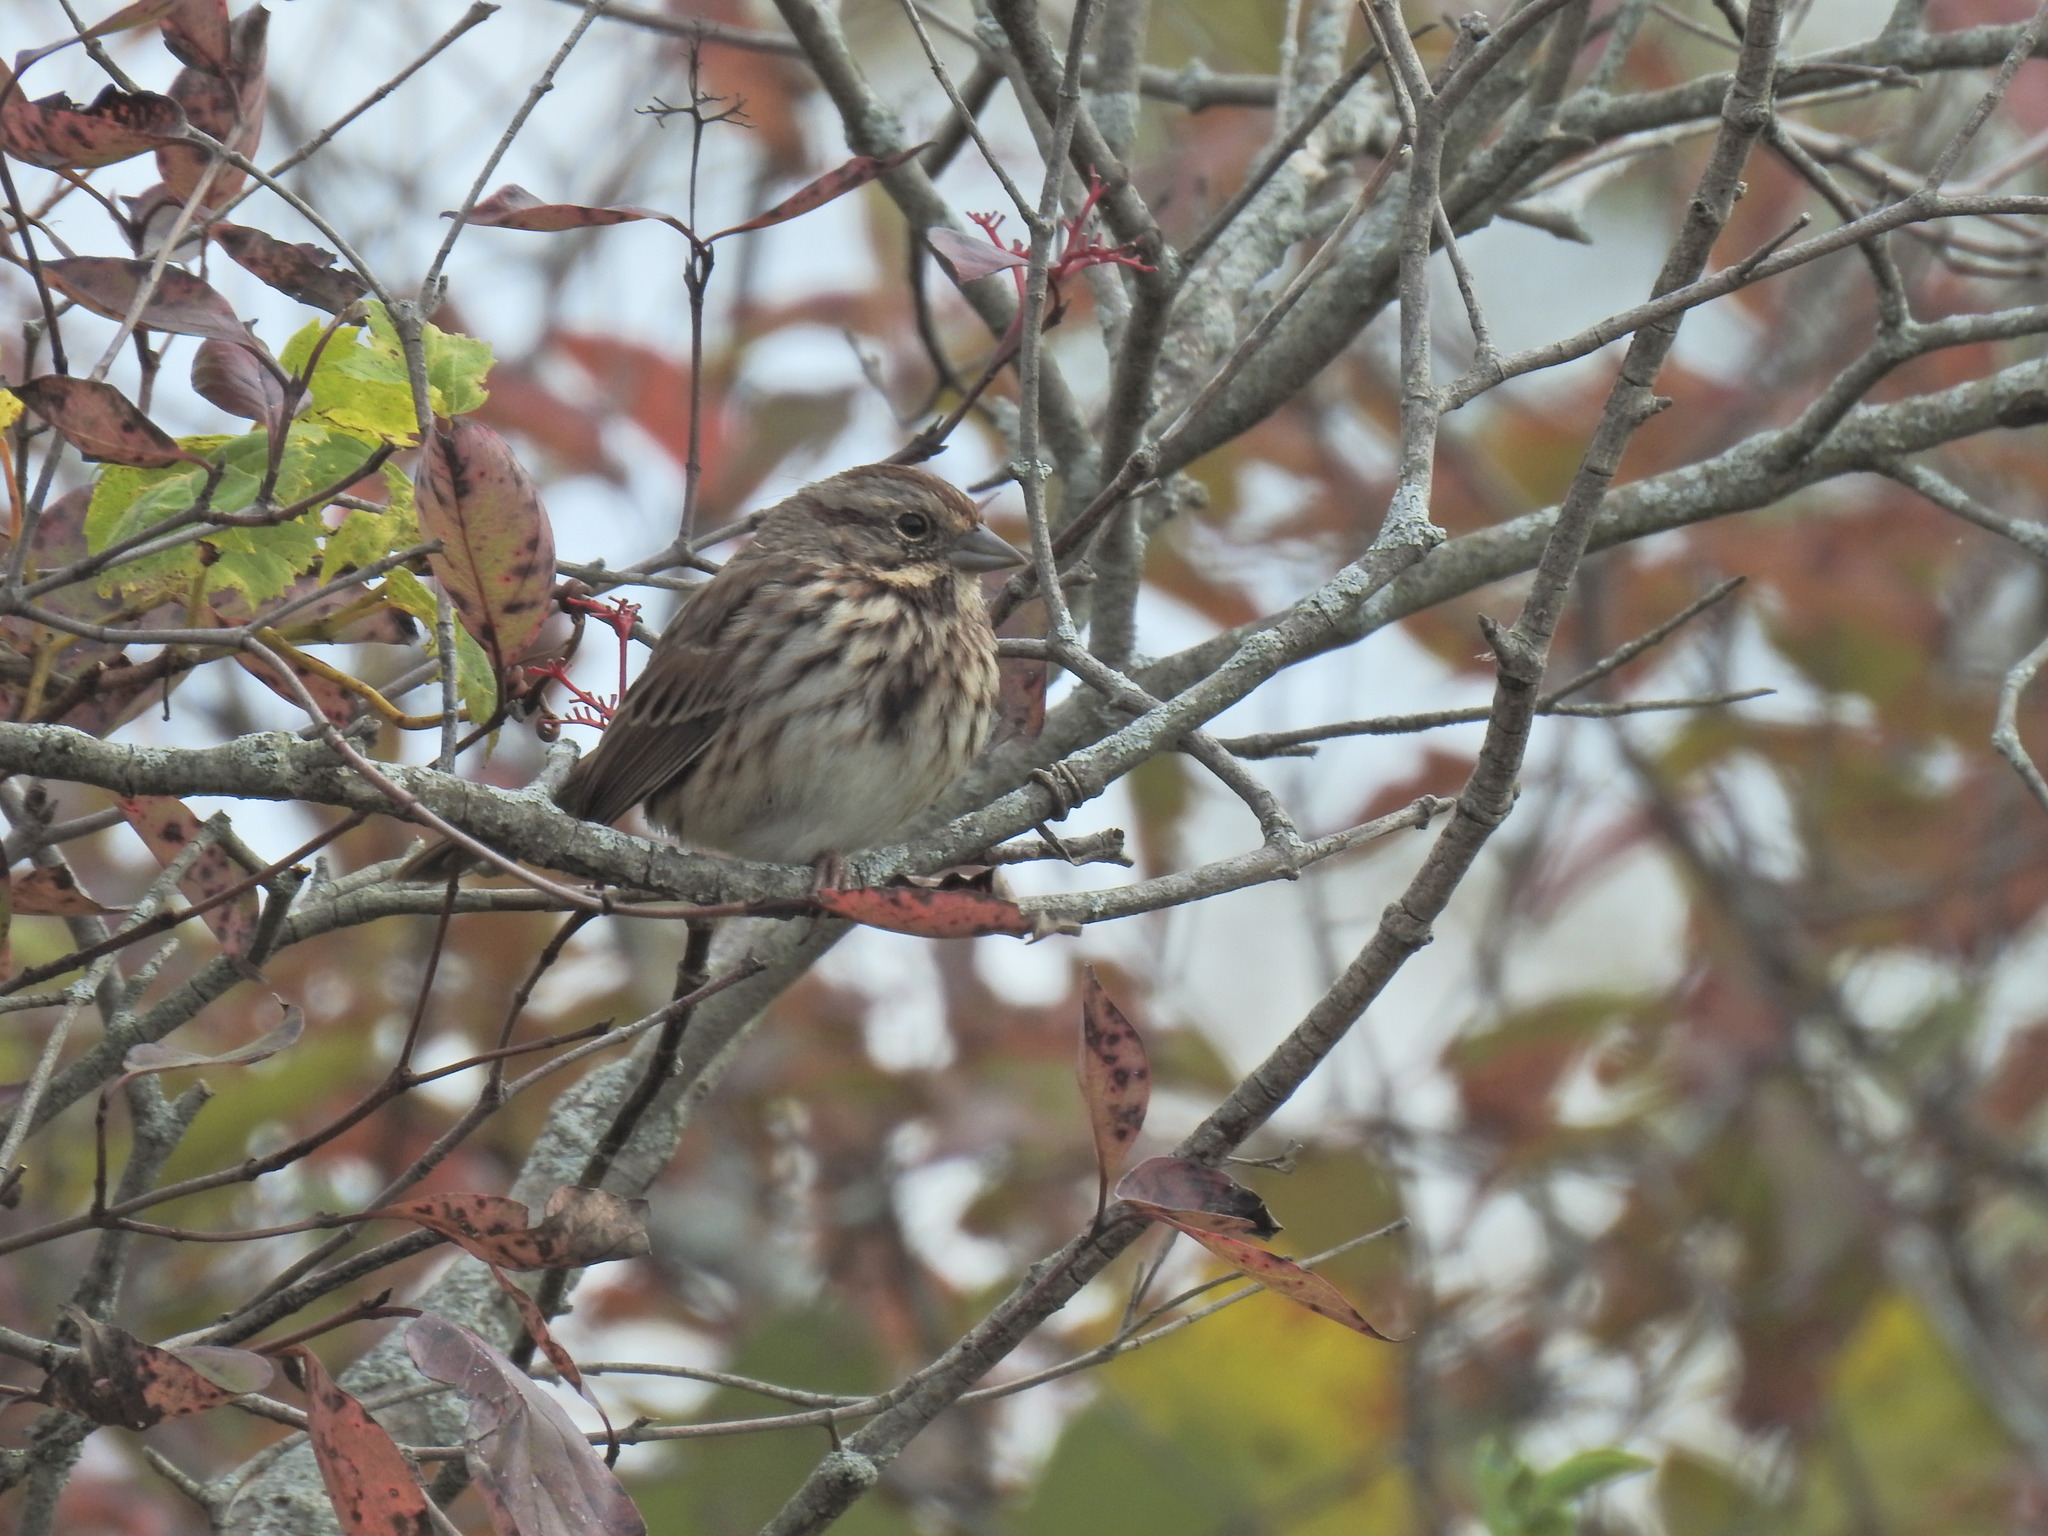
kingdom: Animalia
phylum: Chordata
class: Aves
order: Passeriformes
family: Passerellidae
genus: Melospiza
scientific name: Melospiza melodia
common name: Song sparrow
